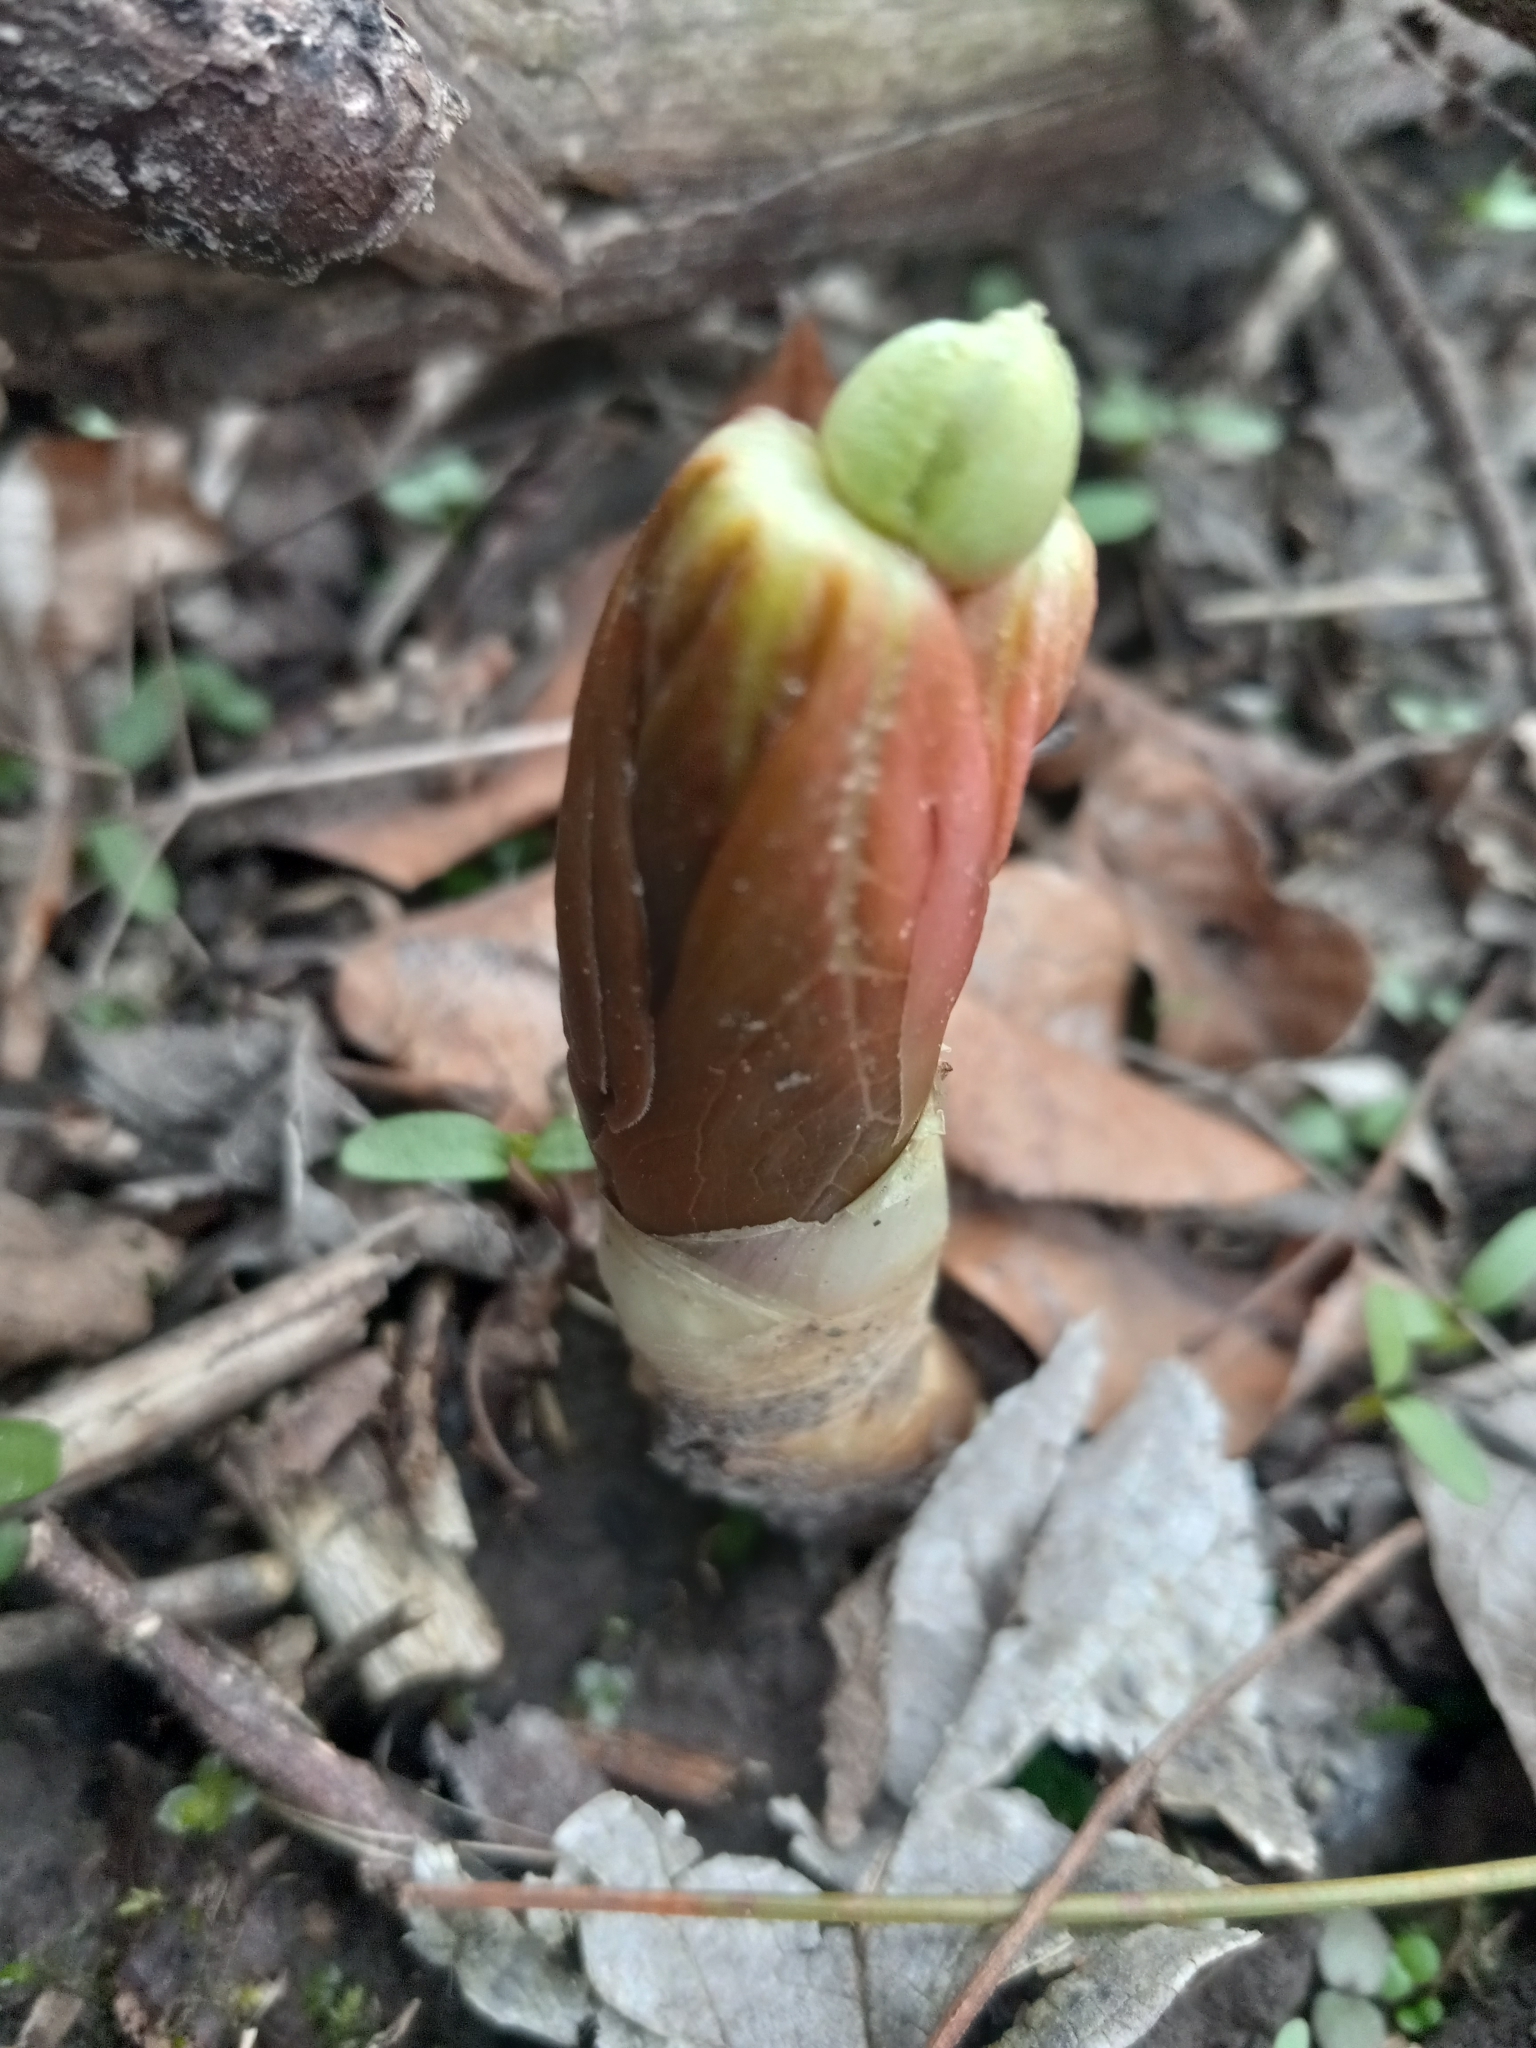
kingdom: Plantae
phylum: Tracheophyta
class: Magnoliopsida
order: Ranunculales
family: Papaveraceae
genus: Sanguinaria
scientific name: Sanguinaria canadensis
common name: Bloodroot
